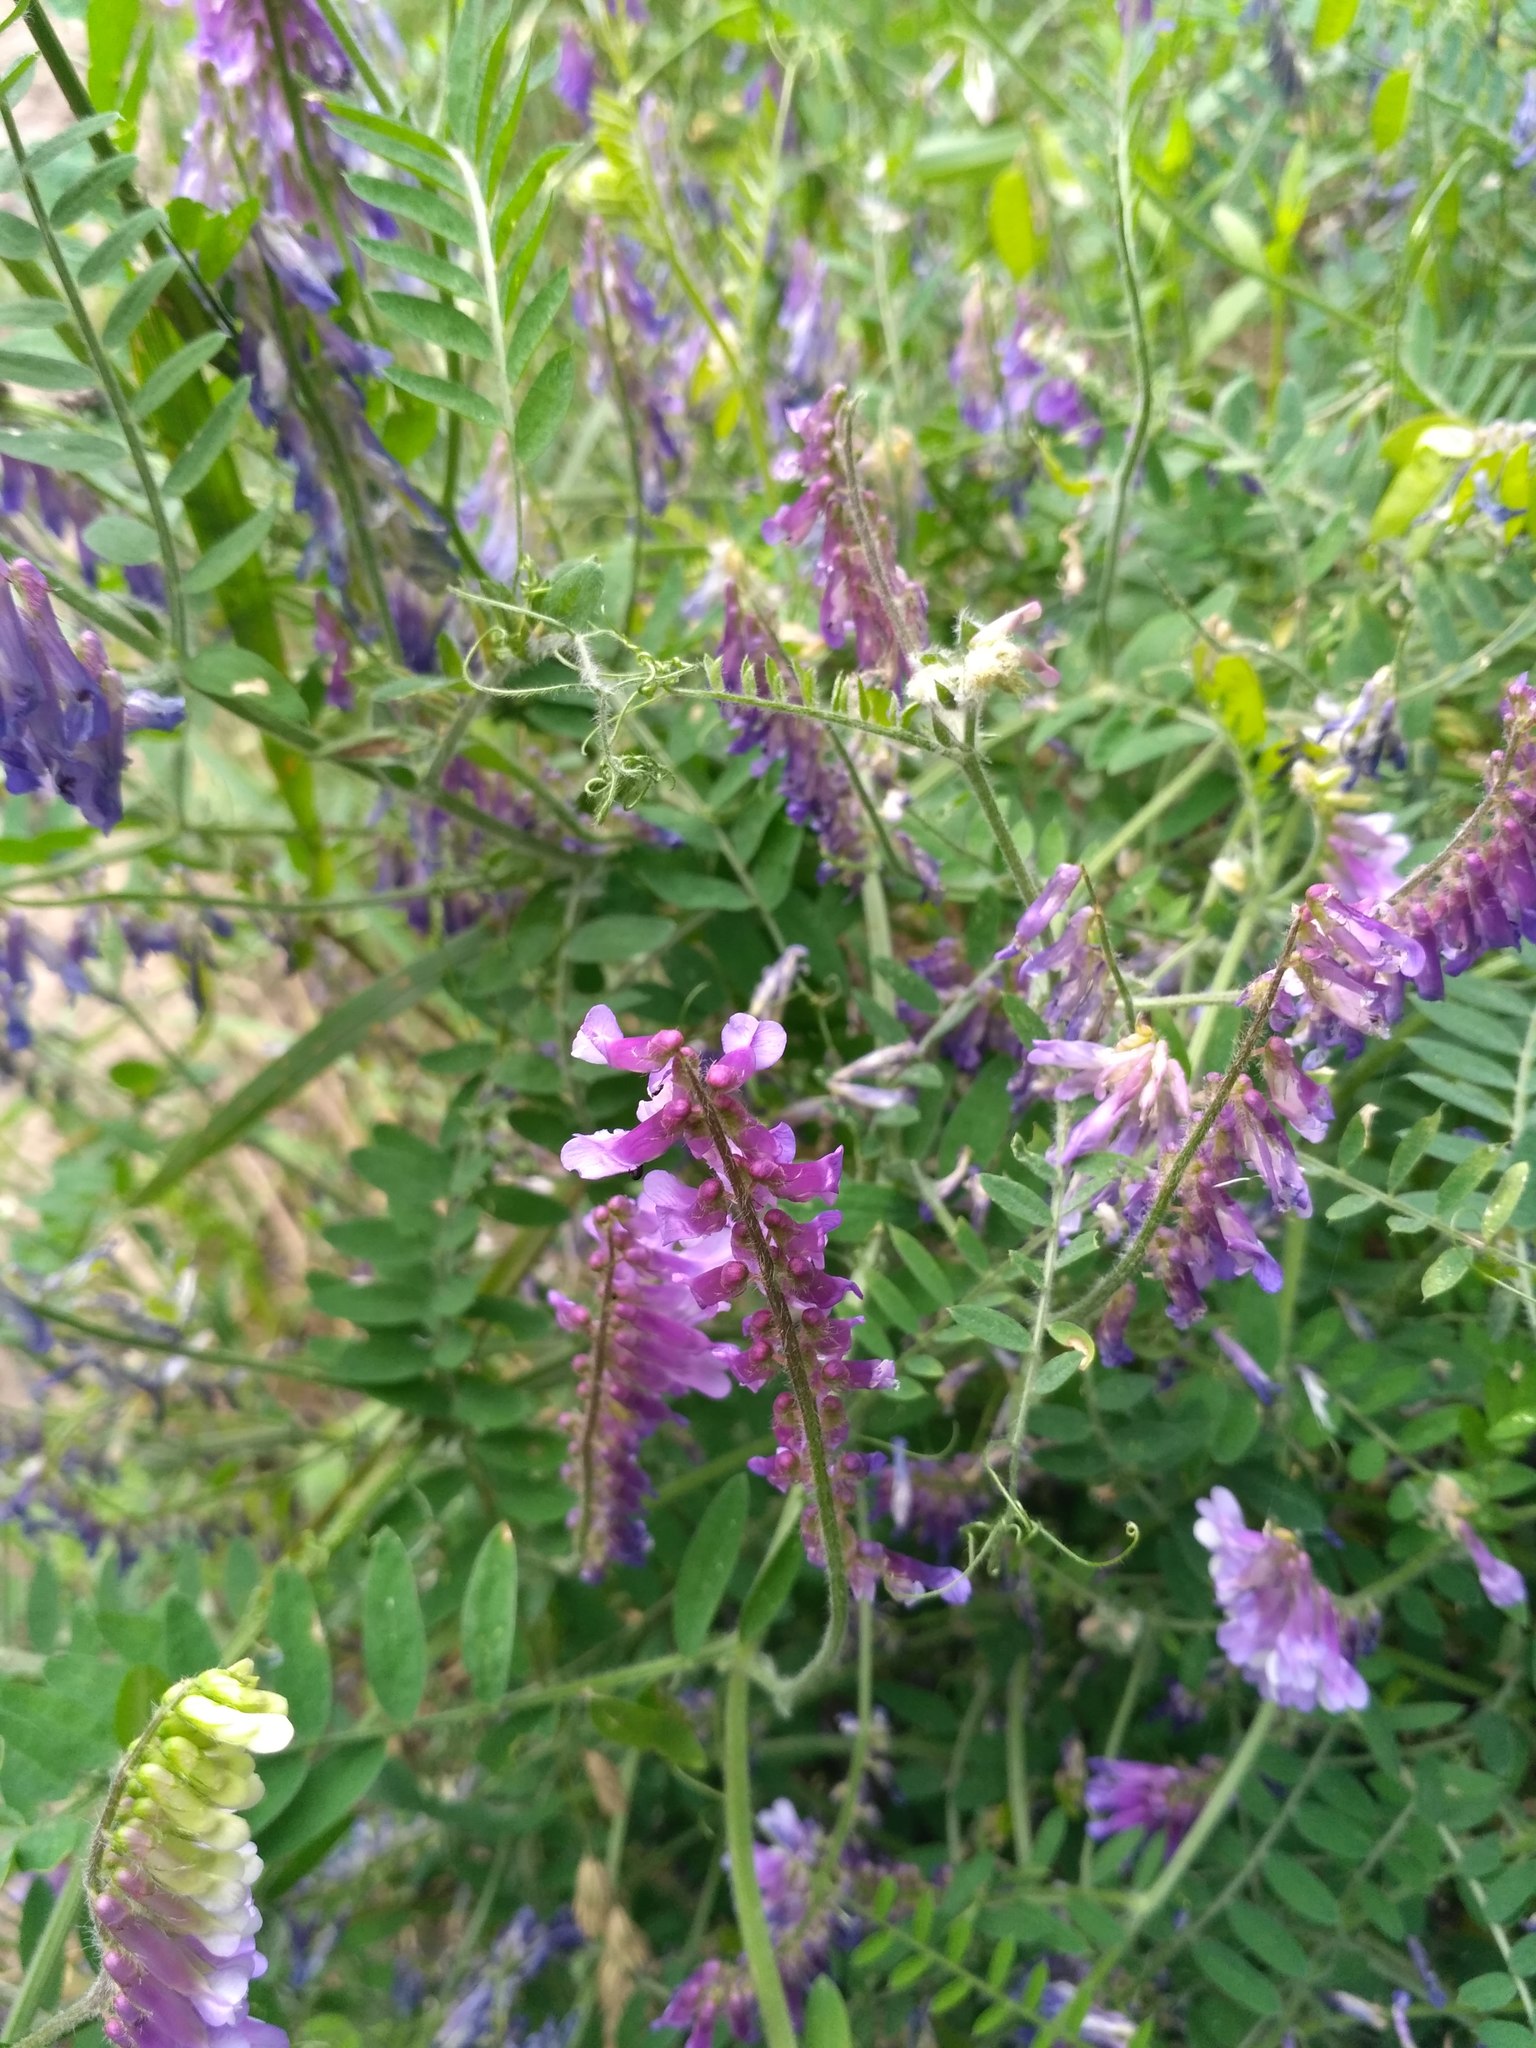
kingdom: Plantae
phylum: Tracheophyta
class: Magnoliopsida
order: Fabales
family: Fabaceae
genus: Vicia
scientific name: Vicia villosa
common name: Fodder vetch
